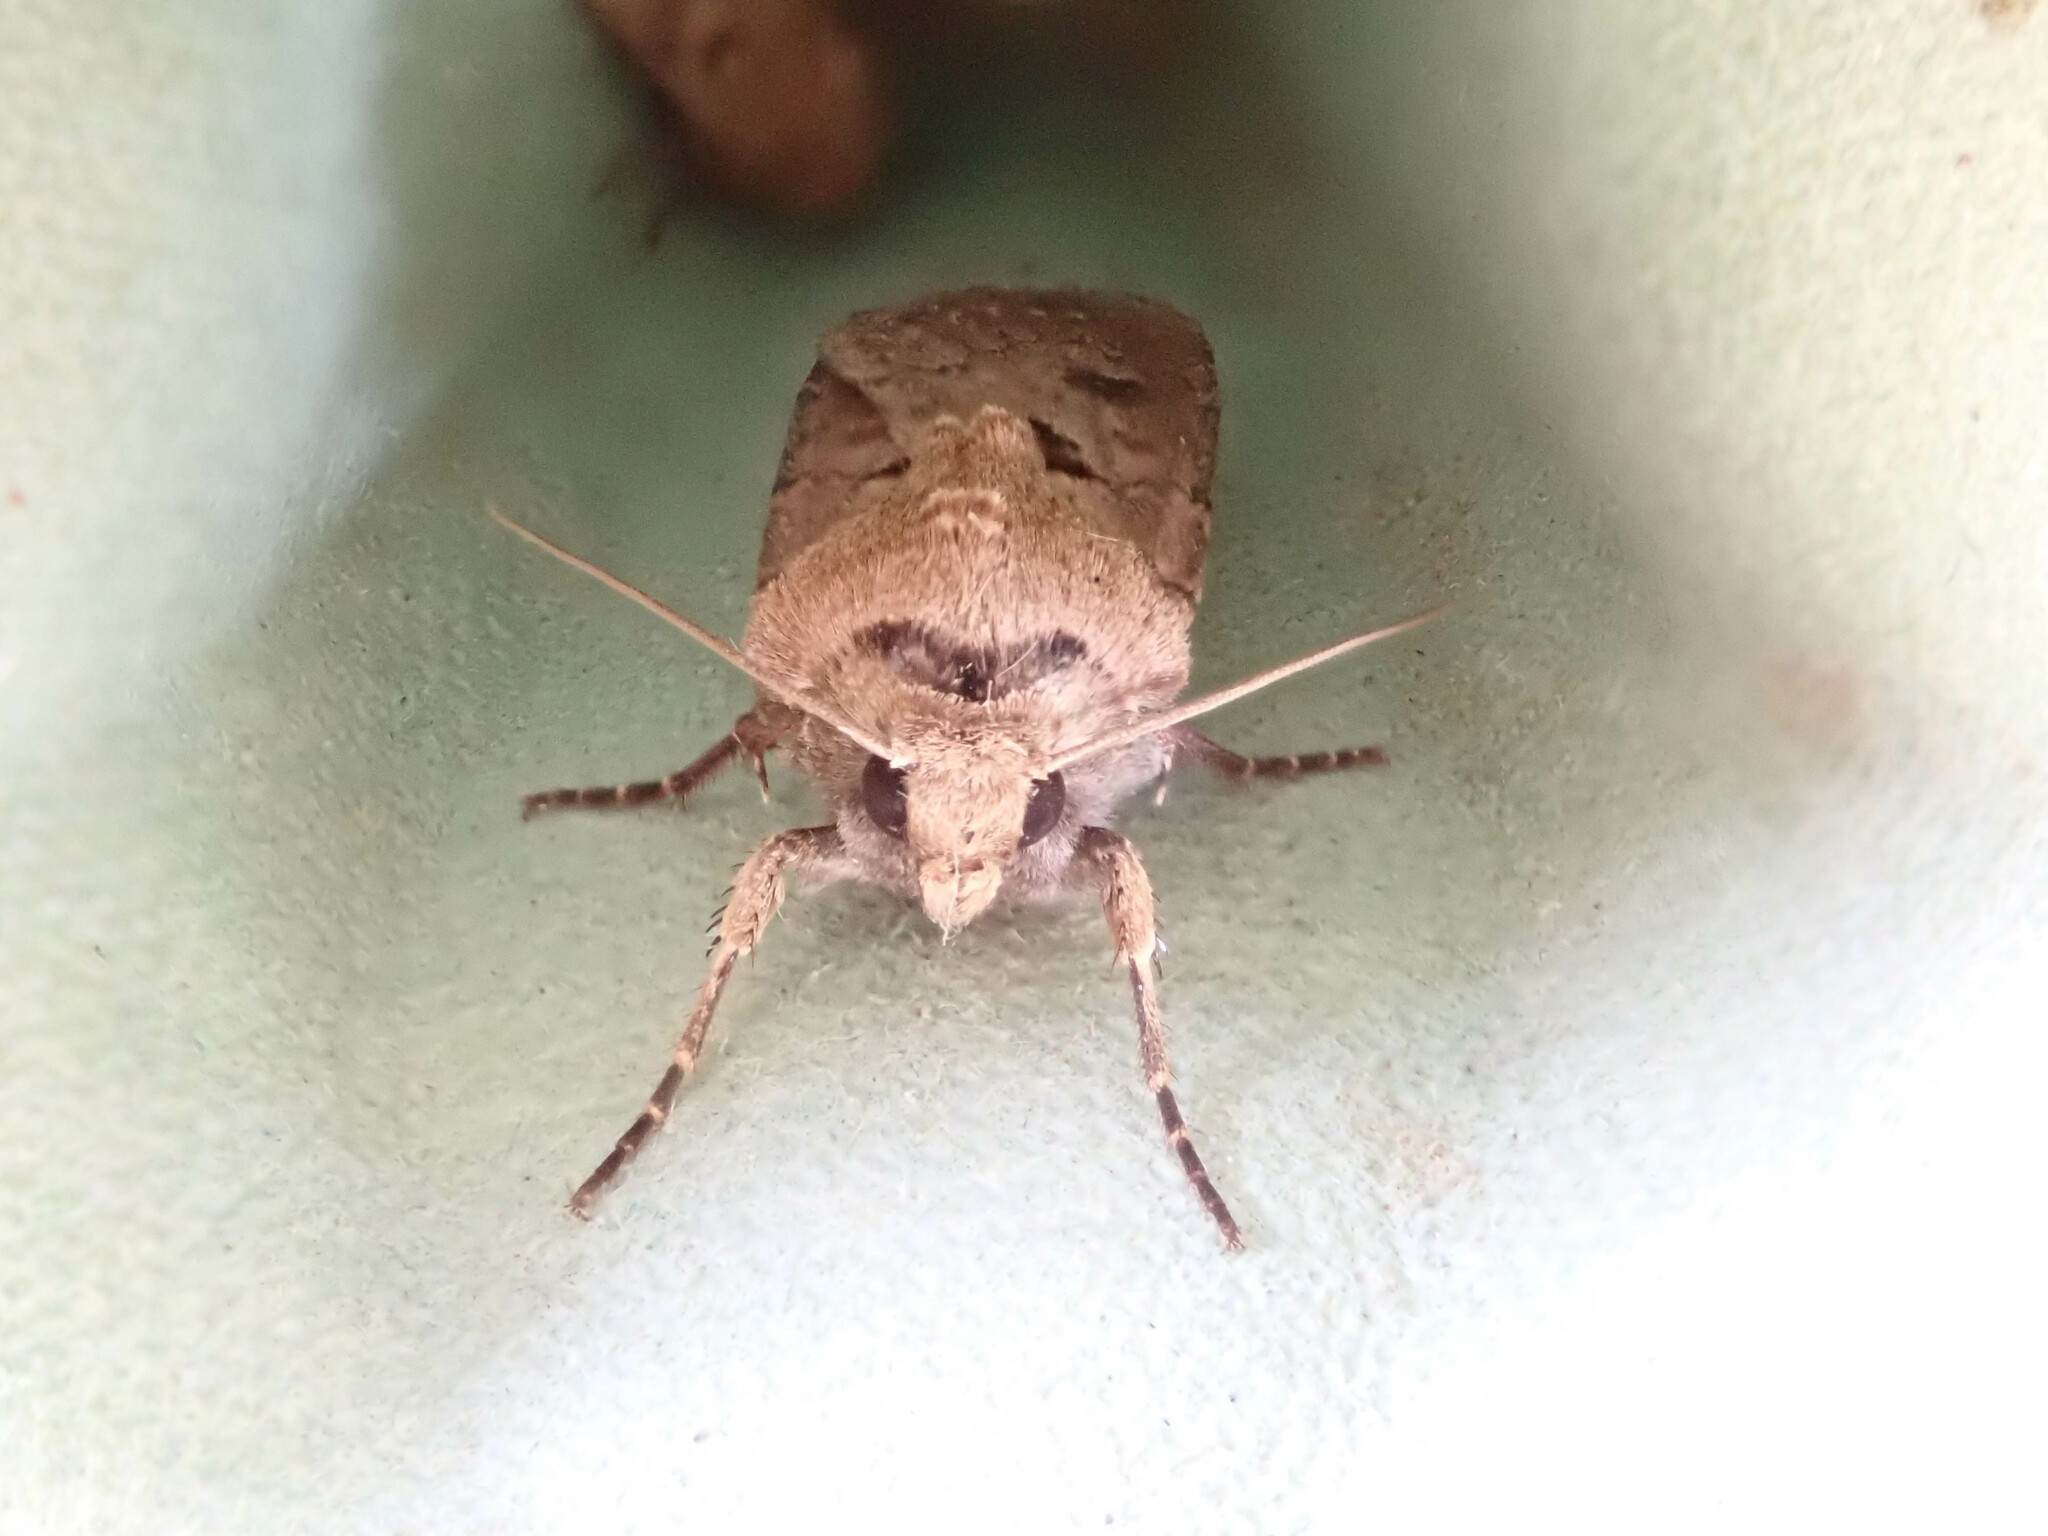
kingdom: Animalia
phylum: Arthropoda
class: Insecta
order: Lepidoptera
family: Noctuidae
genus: Agrotis
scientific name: Agrotis exclamationis
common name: Heart and dart
